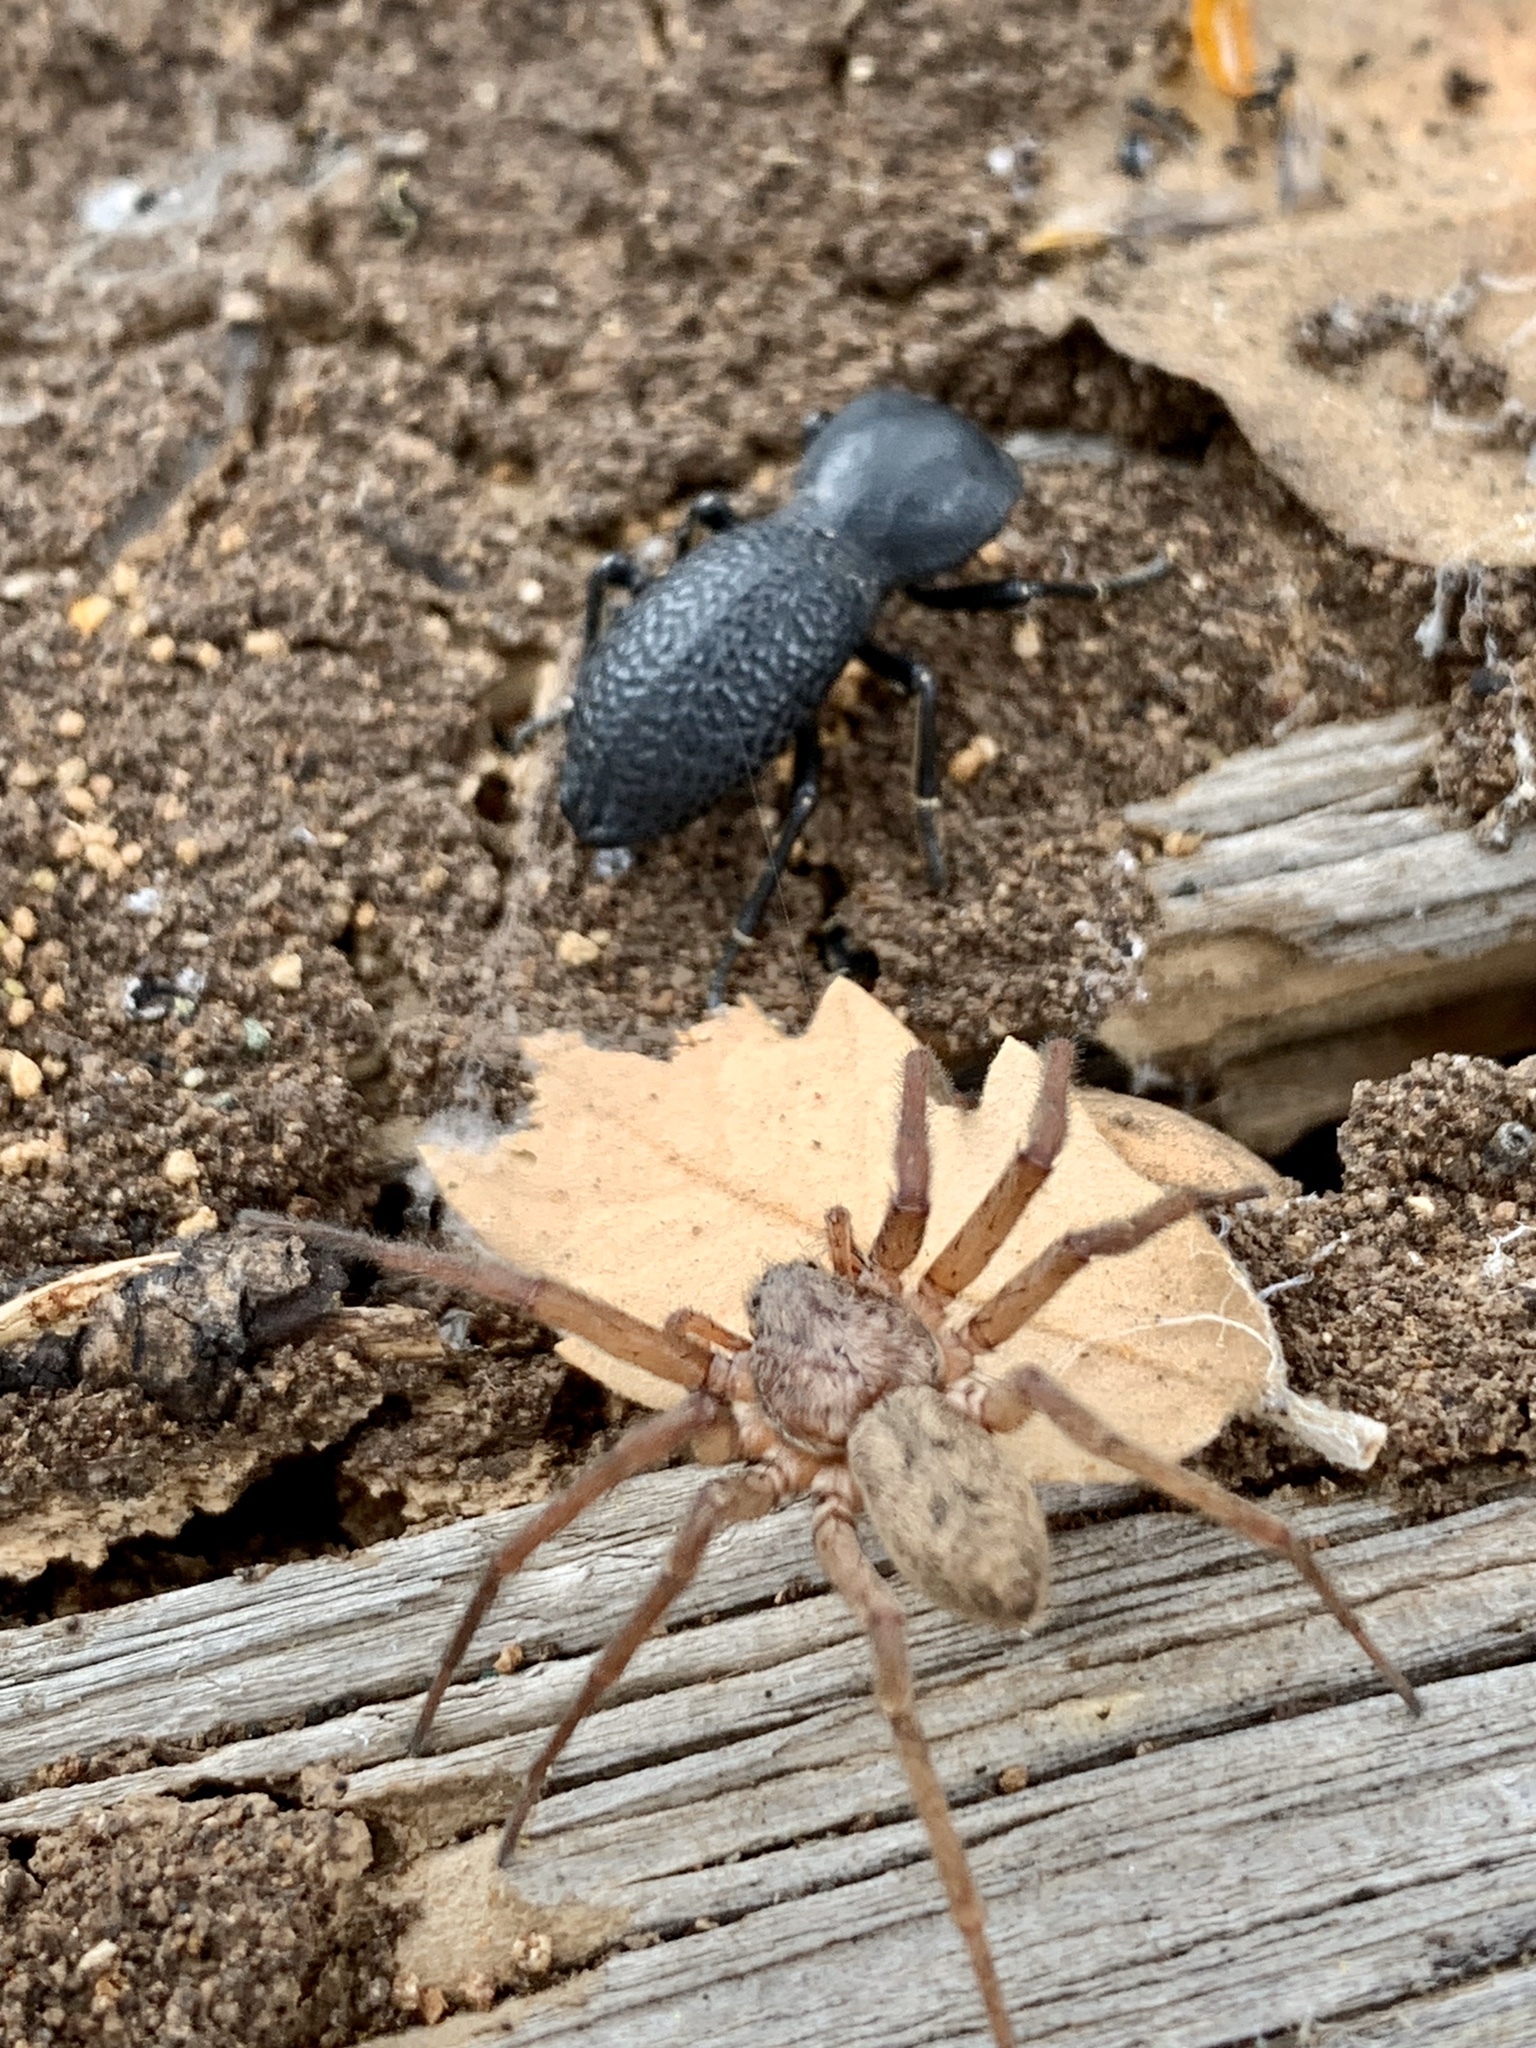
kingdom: Animalia
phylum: Arthropoda
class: Insecta
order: Coleoptera
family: Zopheridae
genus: Zopherus
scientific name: Zopherus concolor
